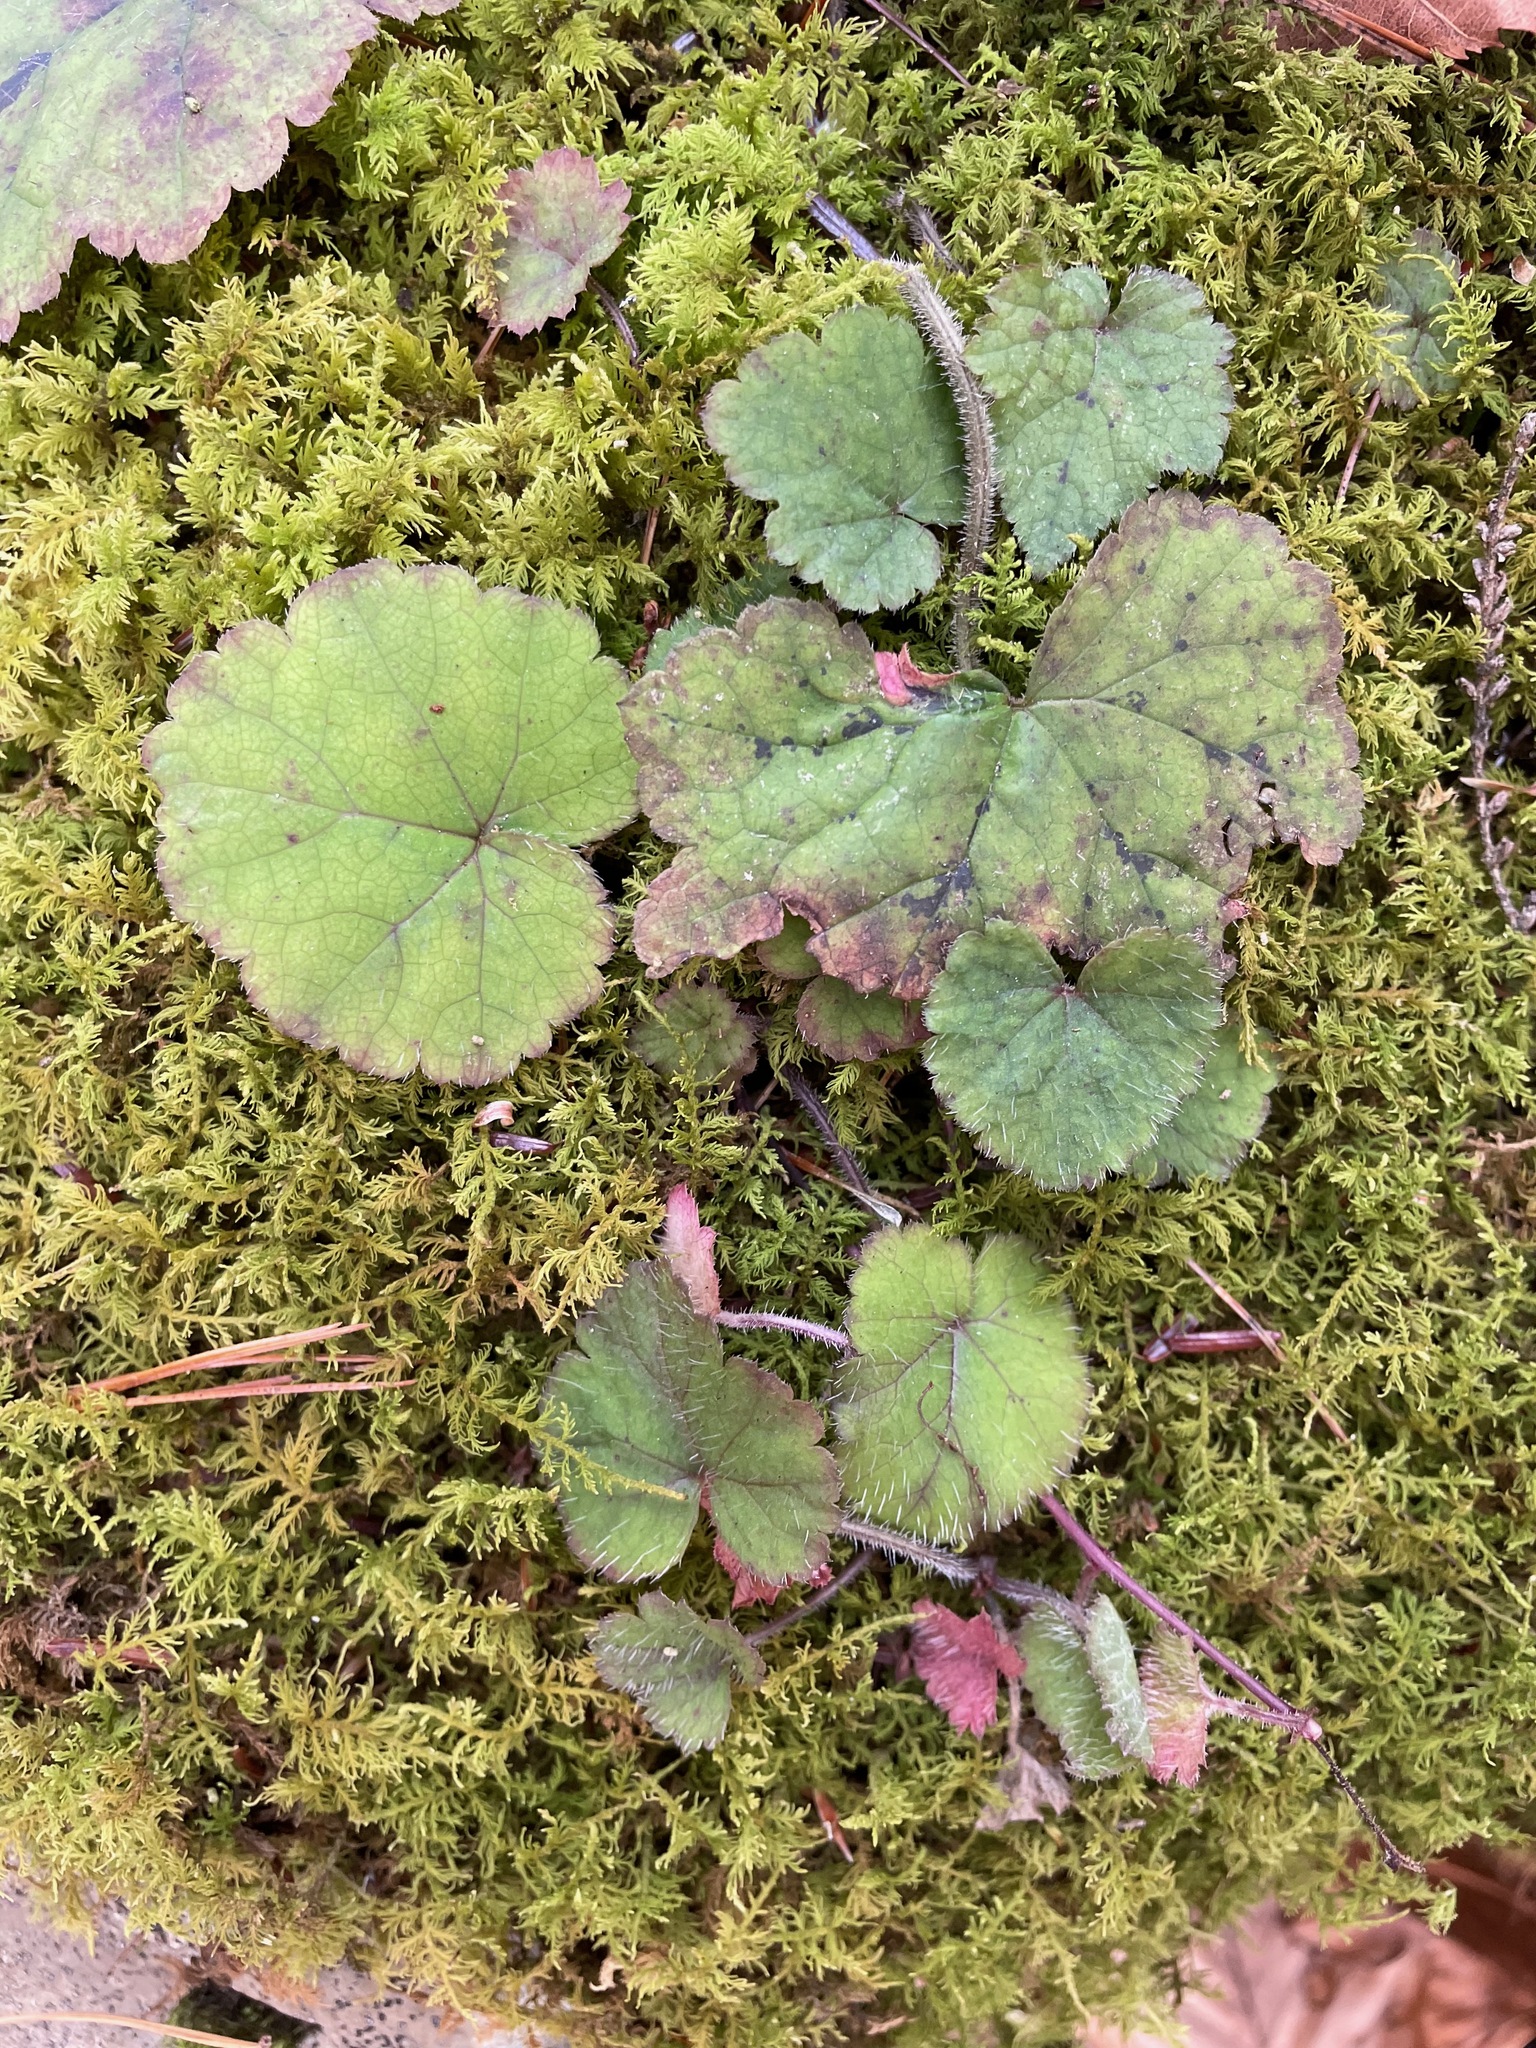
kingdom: Plantae
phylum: Tracheophyta
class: Magnoliopsida
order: Saxifragales
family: Saxifragaceae
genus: Tiarella
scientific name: Tiarella stolonifera
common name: Stoloniferous foamflower
